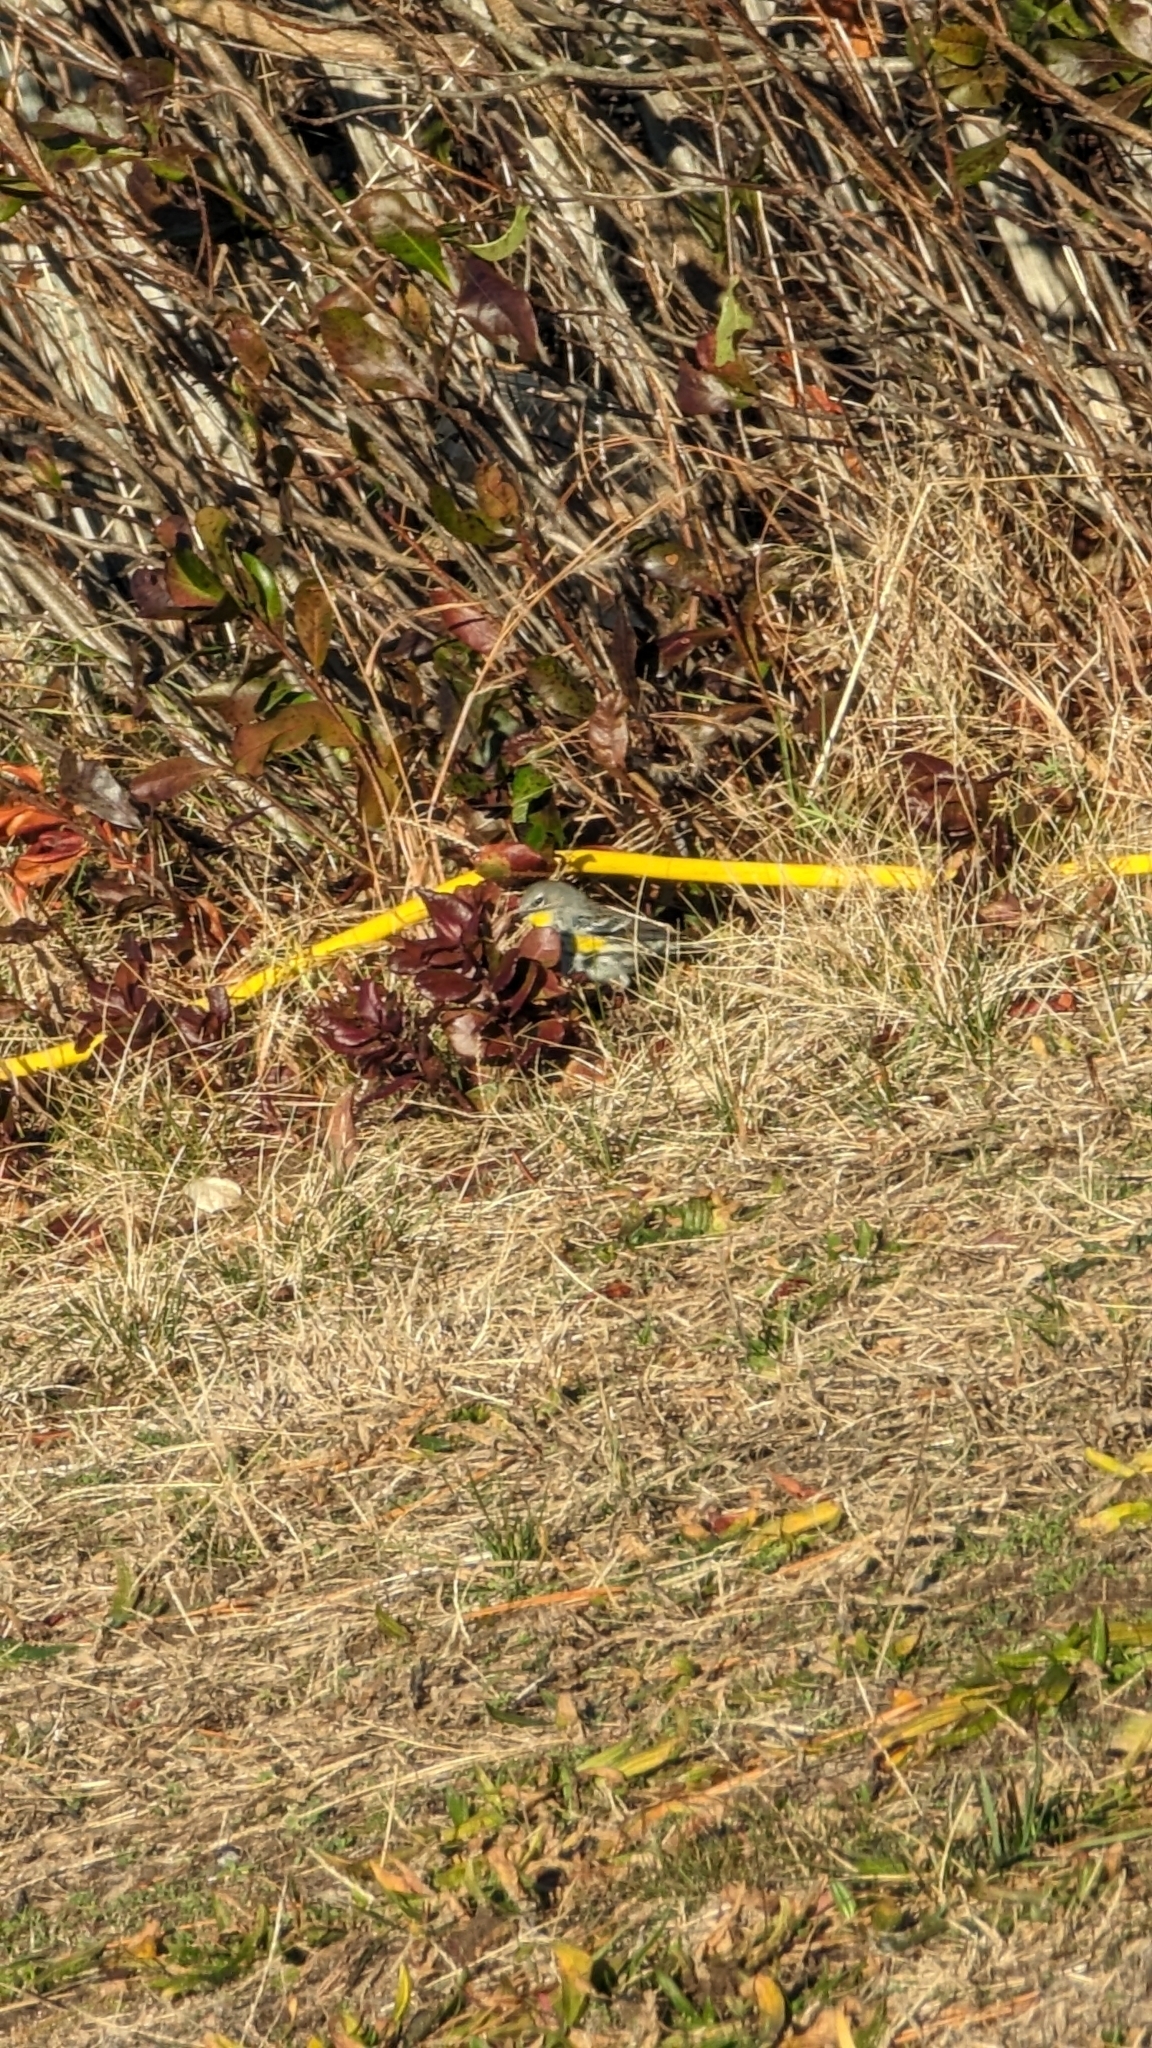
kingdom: Animalia
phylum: Chordata
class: Aves
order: Passeriformes
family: Parulidae
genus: Setophaga
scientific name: Setophaga auduboni
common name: Audubon's warbler
